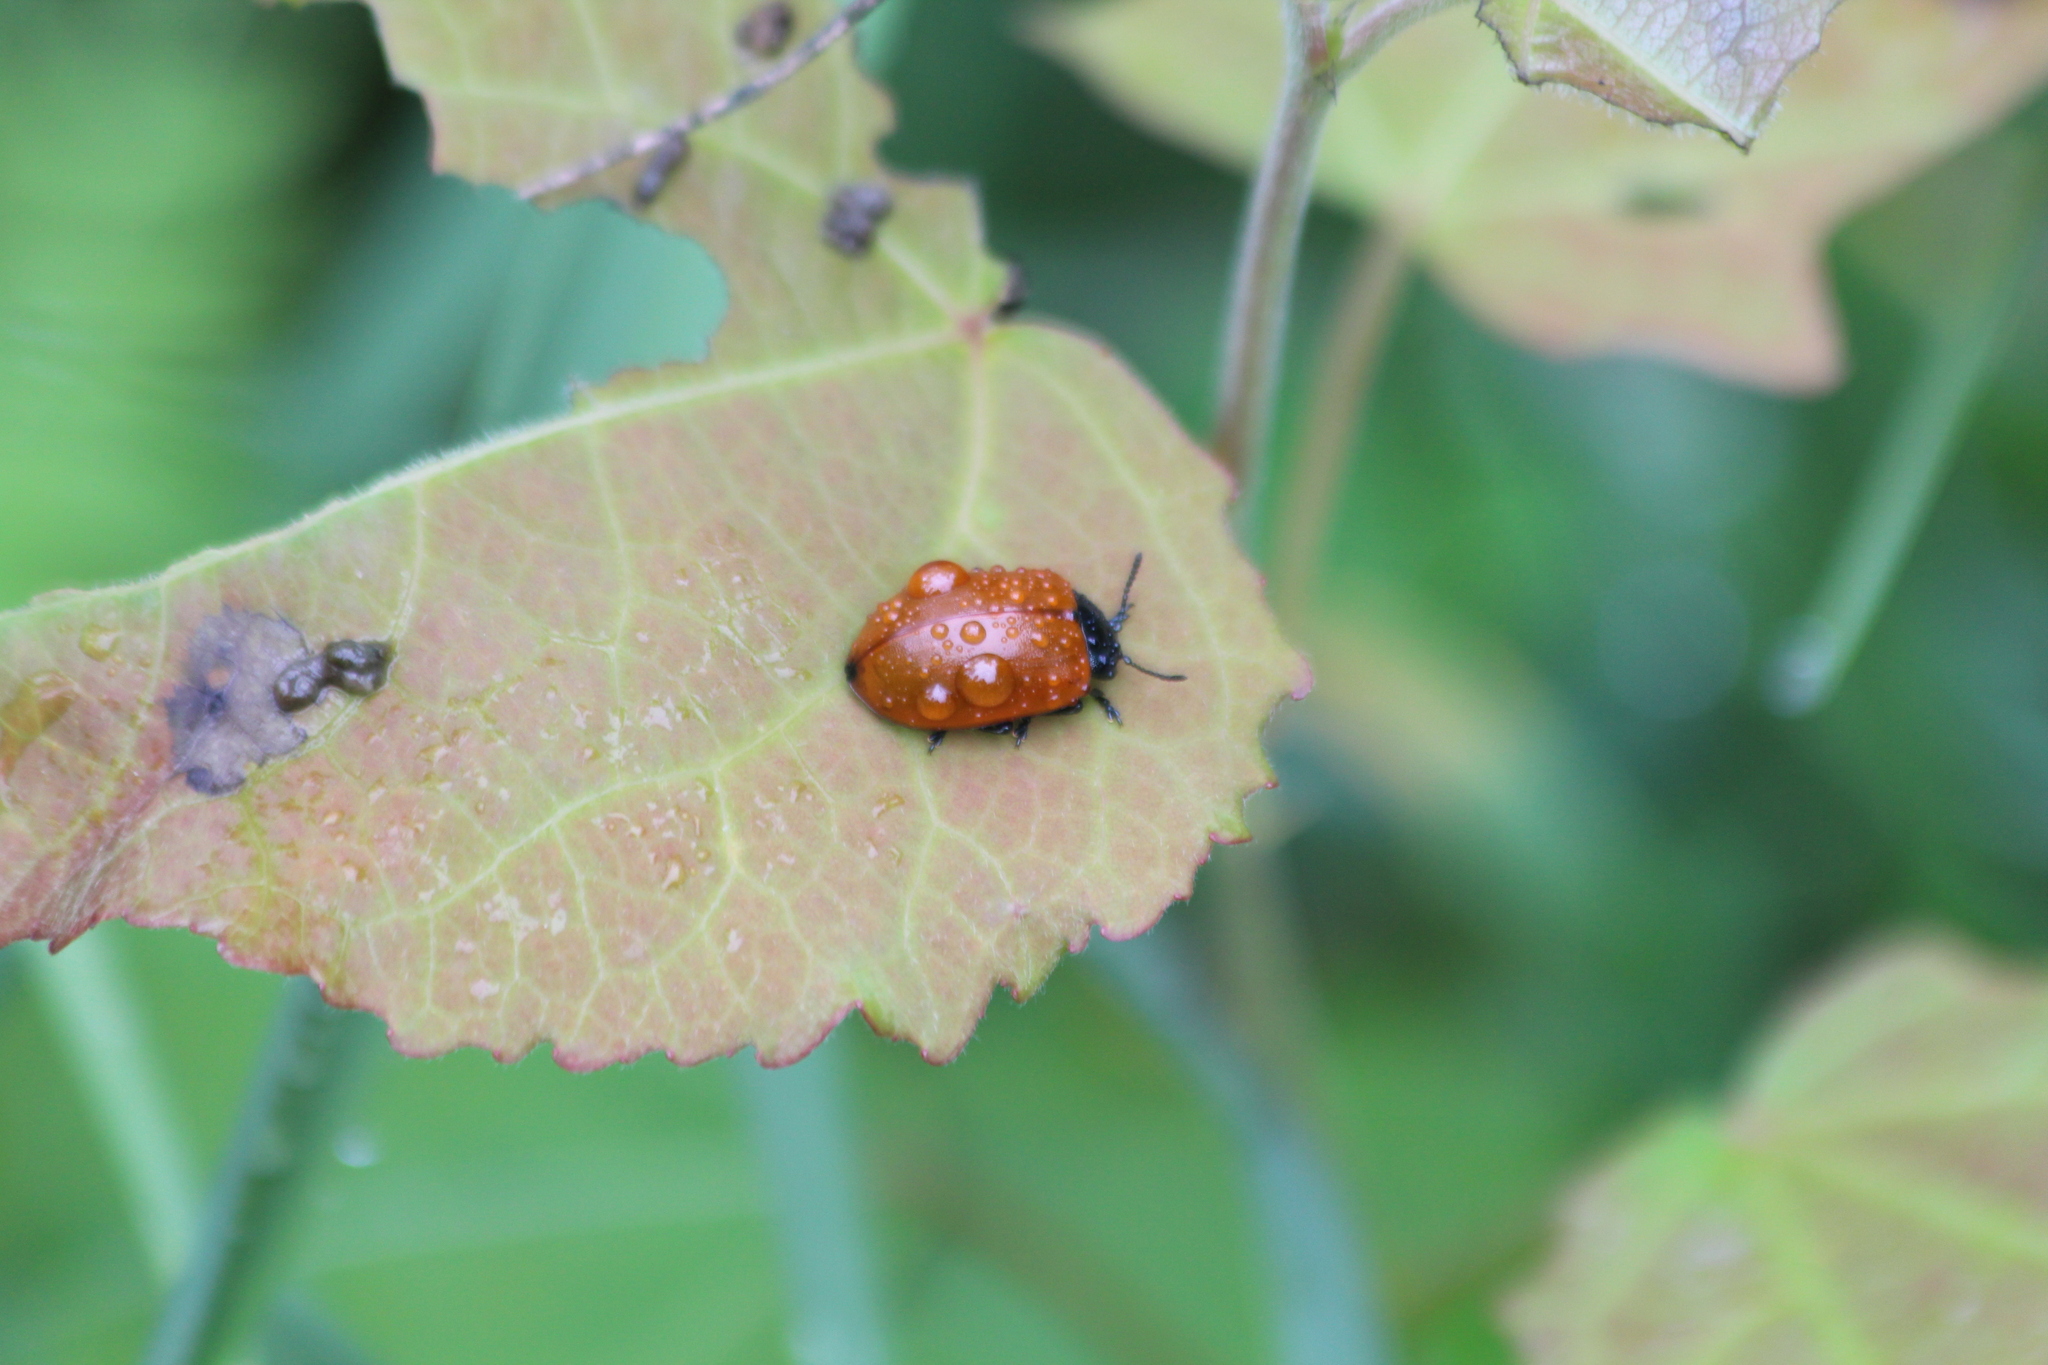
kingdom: Animalia
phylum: Arthropoda
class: Insecta
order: Coleoptera
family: Chrysomelidae
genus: Chrysomela
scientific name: Chrysomela populi
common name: Red poplar leaf beetle
